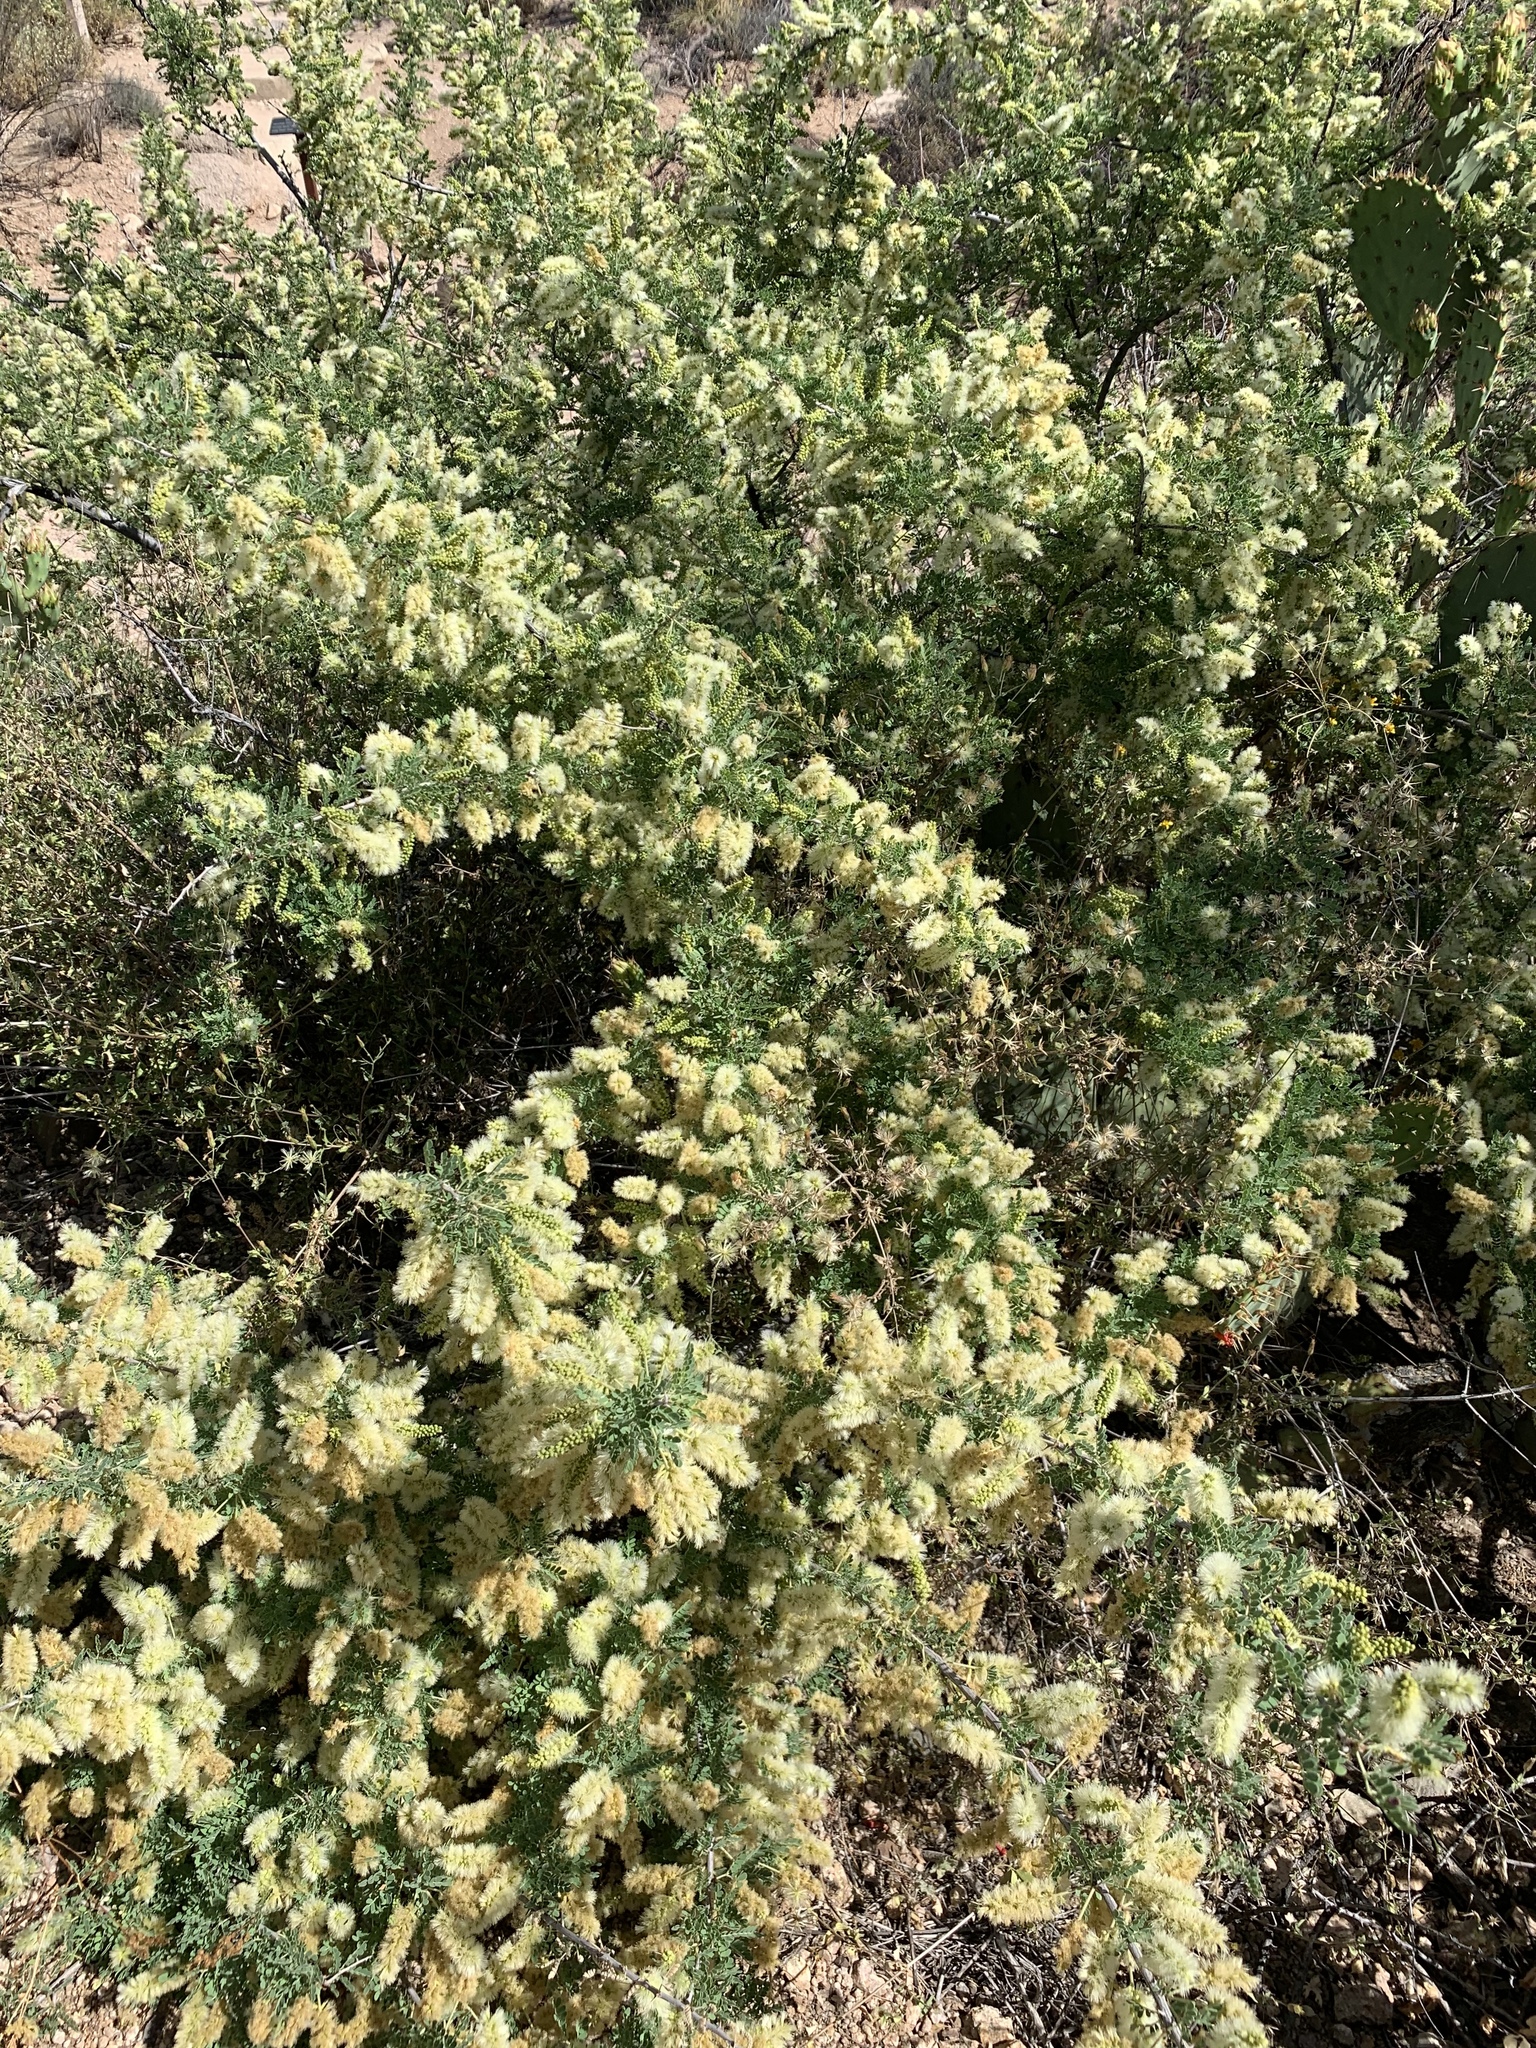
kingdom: Plantae
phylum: Tracheophyta
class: Magnoliopsida
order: Fabales
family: Fabaceae
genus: Senegalia
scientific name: Senegalia greggii
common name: Texas-mimosa
